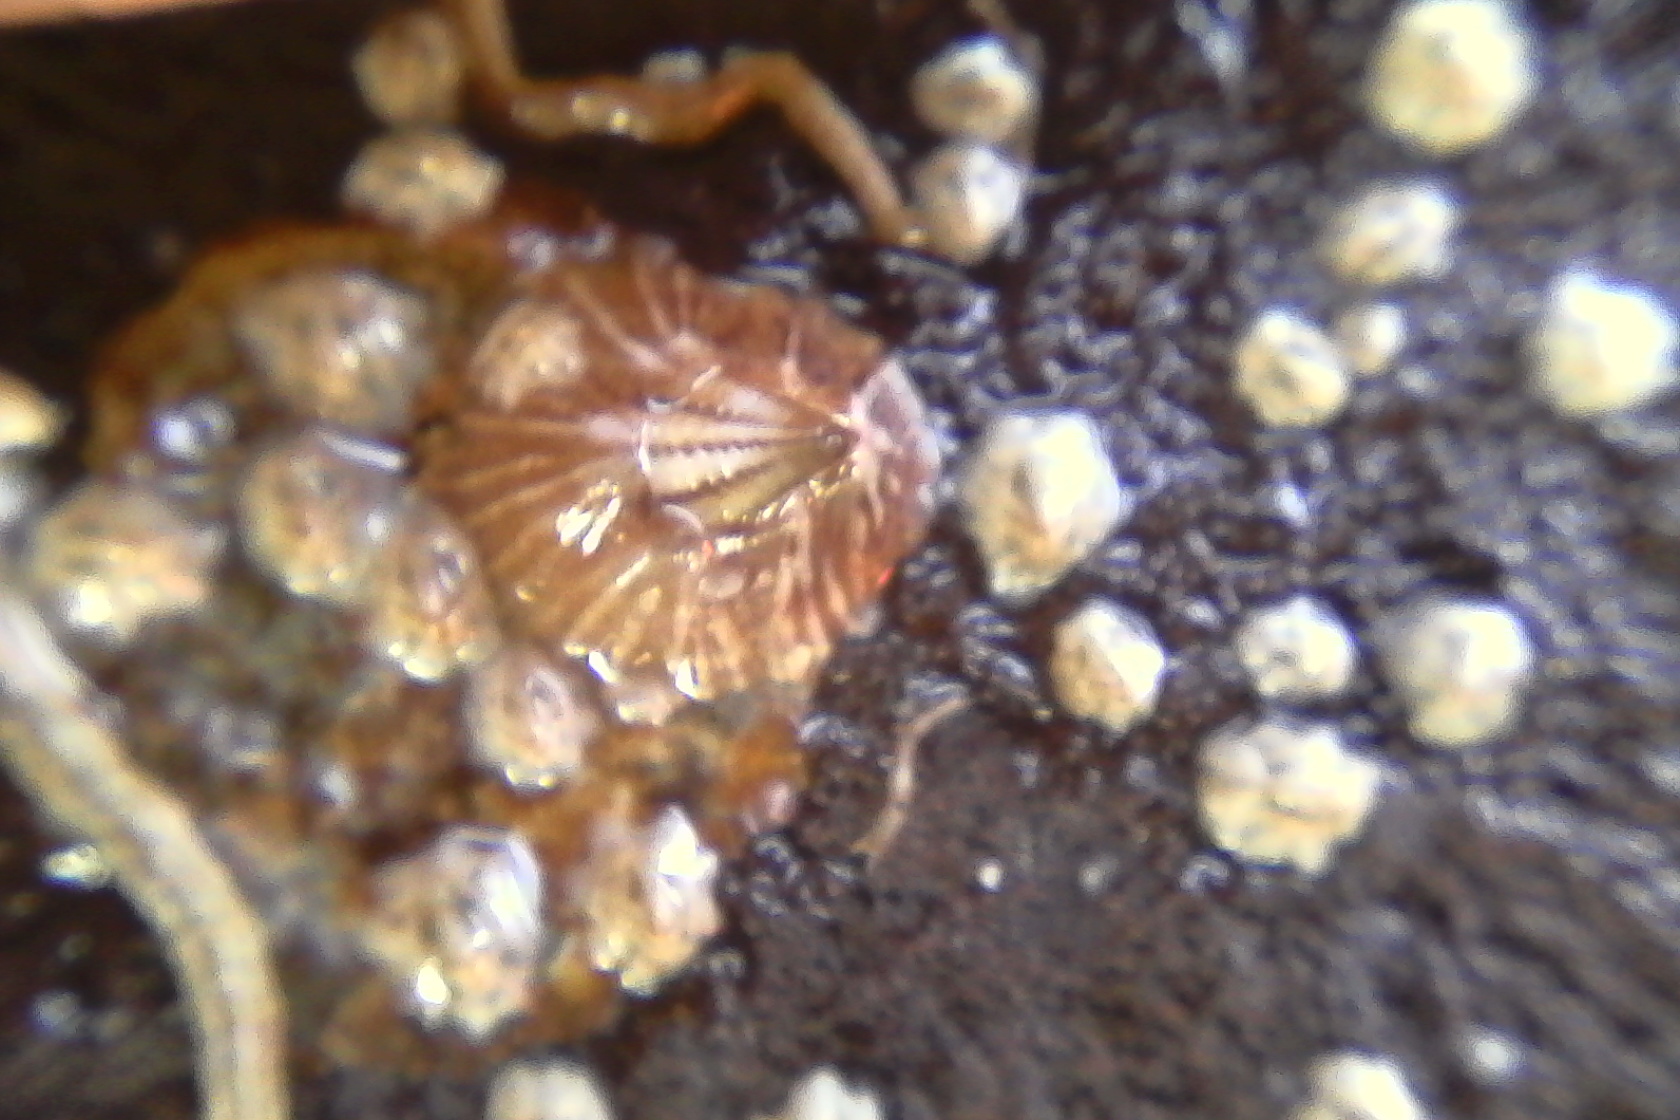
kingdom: Animalia
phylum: Arthropoda
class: Maxillopoda
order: Sessilia
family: Balanidae
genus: Balanus
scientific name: Balanus trigonus
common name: Triangle barnacle
